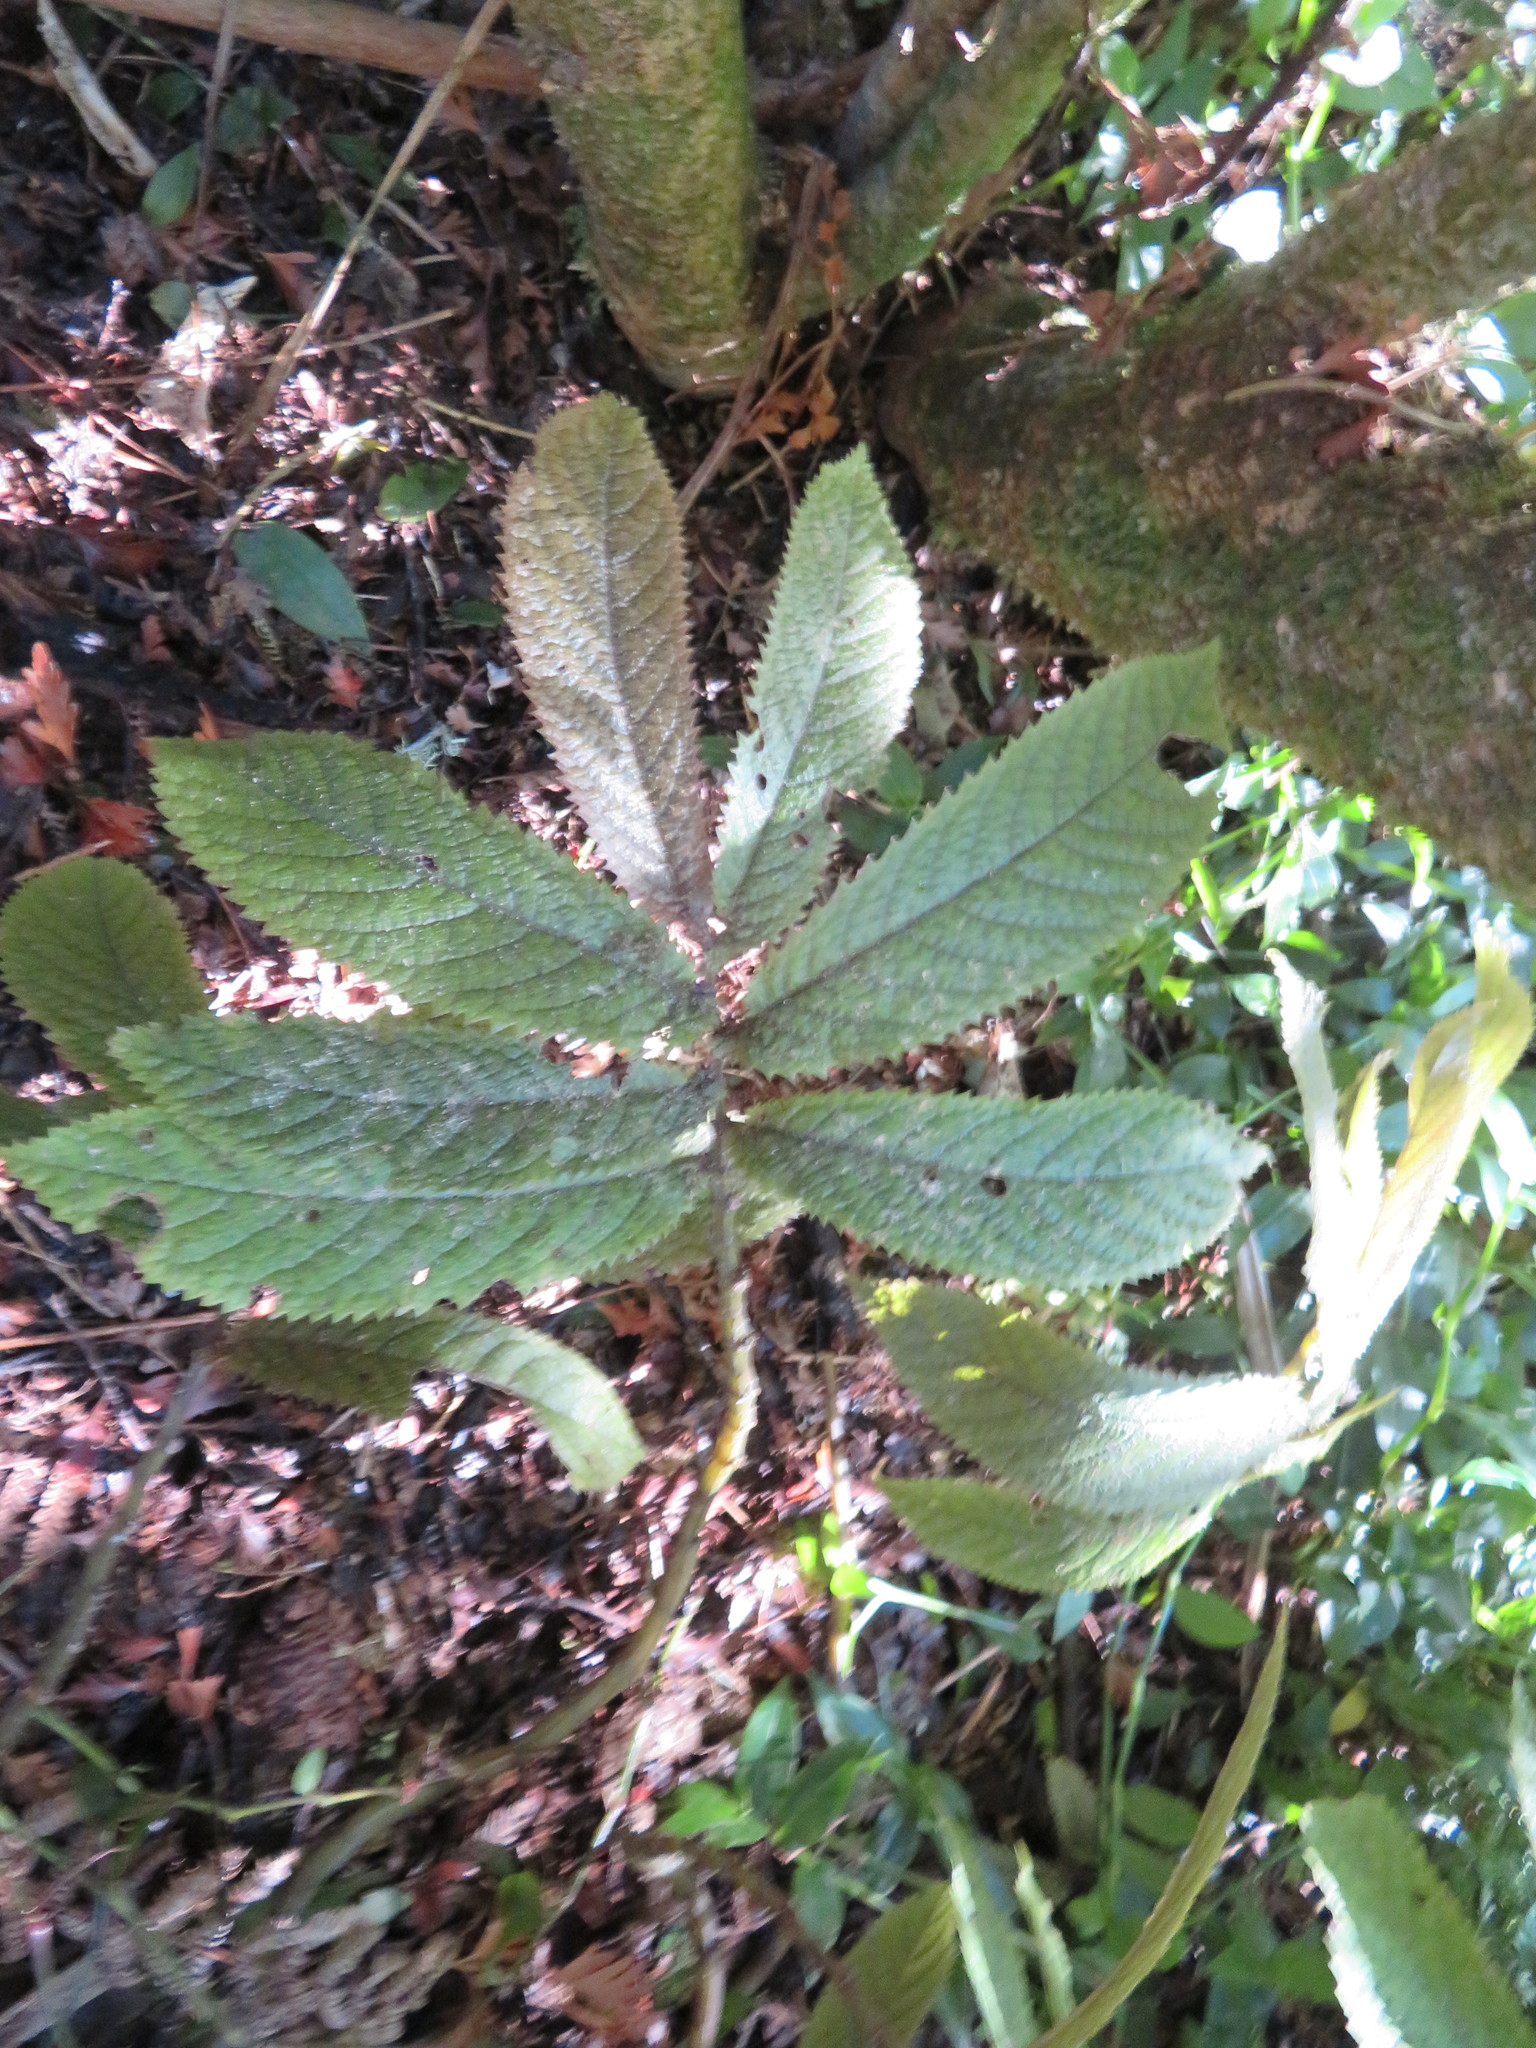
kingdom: Plantae
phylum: Tracheophyta
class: Magnoliopsida
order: Rosales
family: Urticaceae
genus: Elatostema
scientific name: Elatostema rugosum
